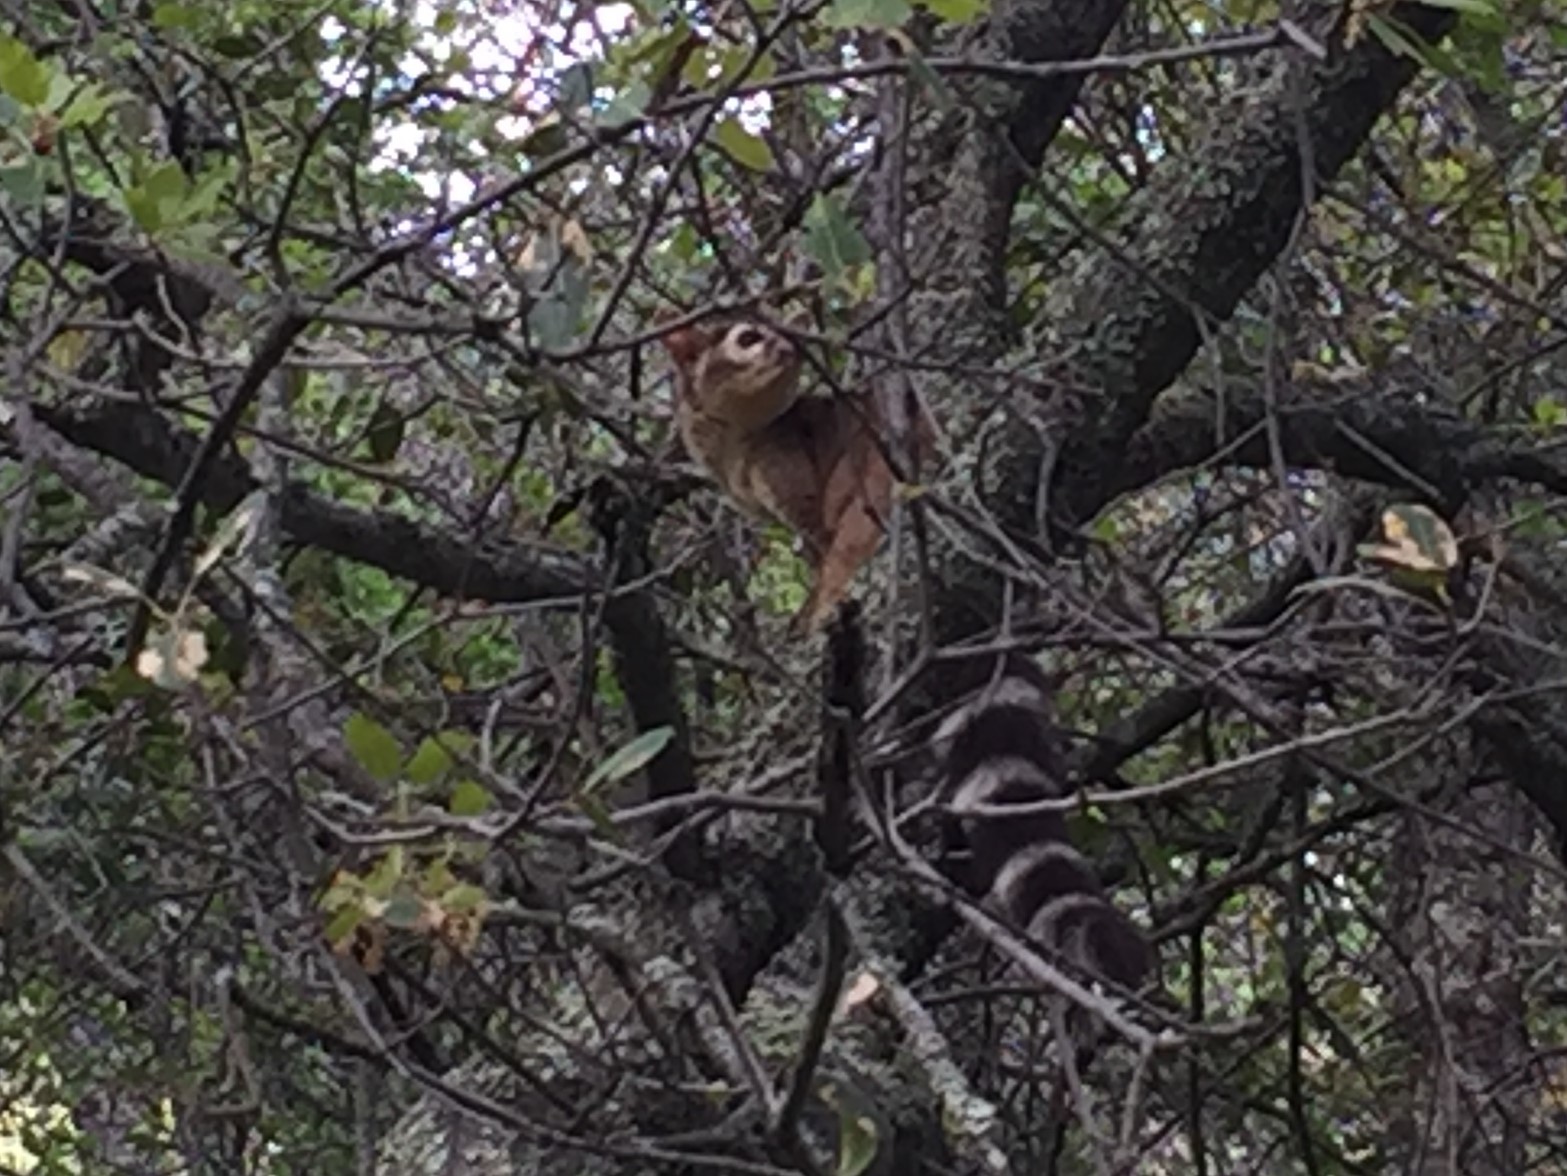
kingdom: Animalia
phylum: Chordata
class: Mammalia
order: Carnivora
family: Procyonidae
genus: Bassariscus
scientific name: Bassariscus astutus
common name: Ringtail
